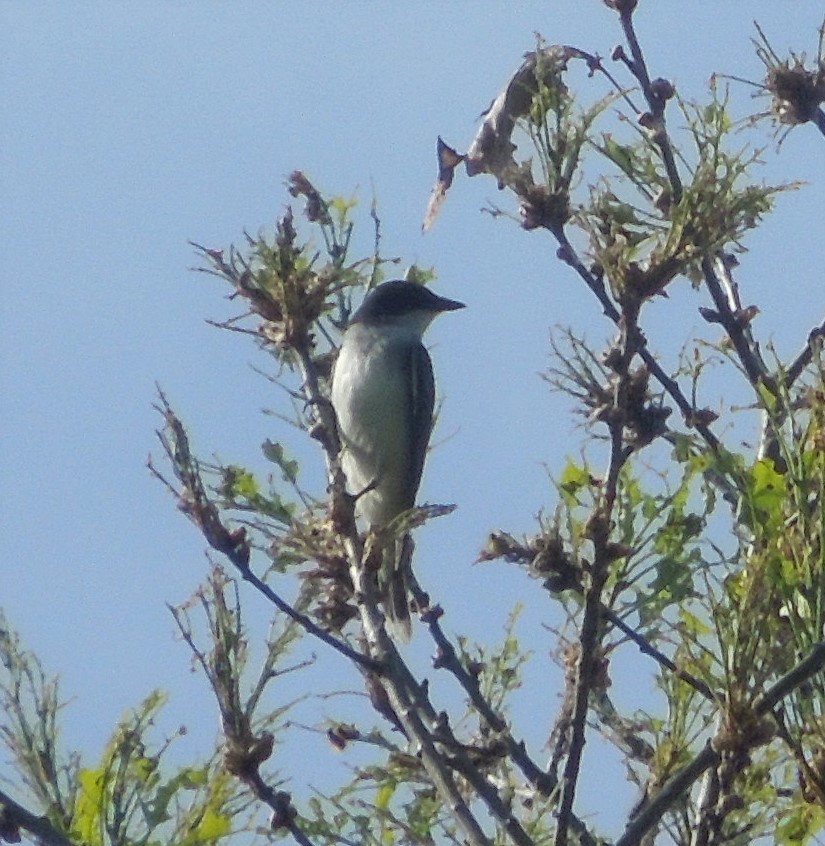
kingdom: Animalia
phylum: Chordata
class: Aves
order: Passeriformes
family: Tyrannidae
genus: Tyrannus
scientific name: Tyrannus tyrannus
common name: Eastern kingbird
